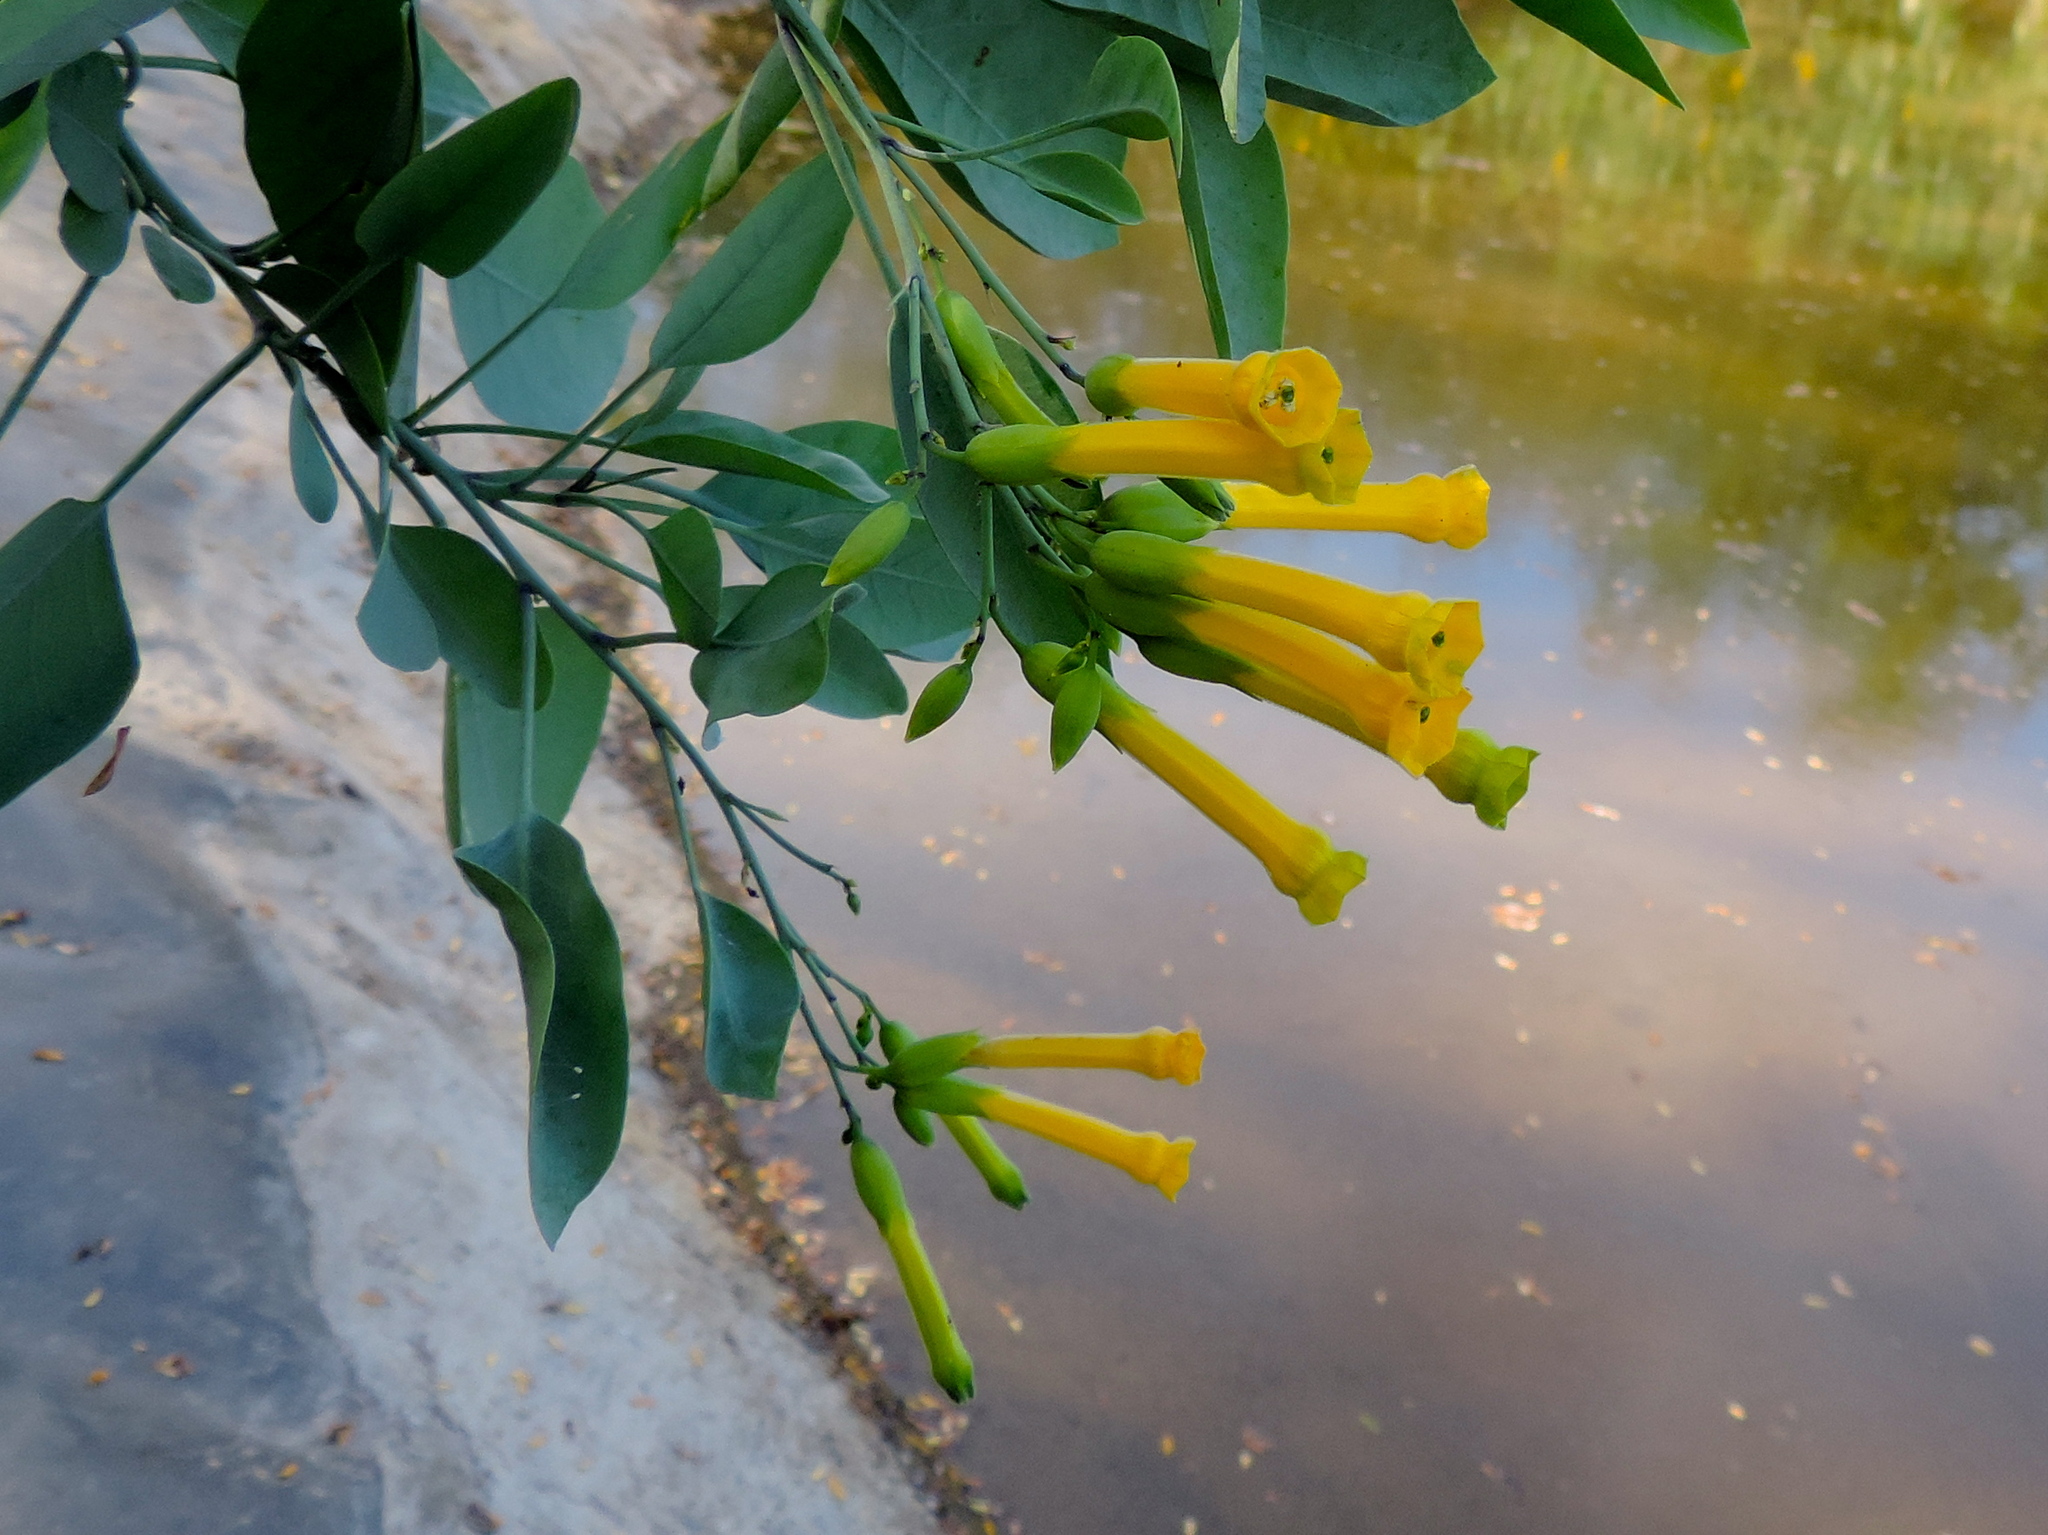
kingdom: Plantae
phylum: Tracheophyta
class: Magnoliopsida
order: Solanales
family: Solanaceae
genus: Nicotiana
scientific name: Nicotiana glauca
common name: Tree tobacco
